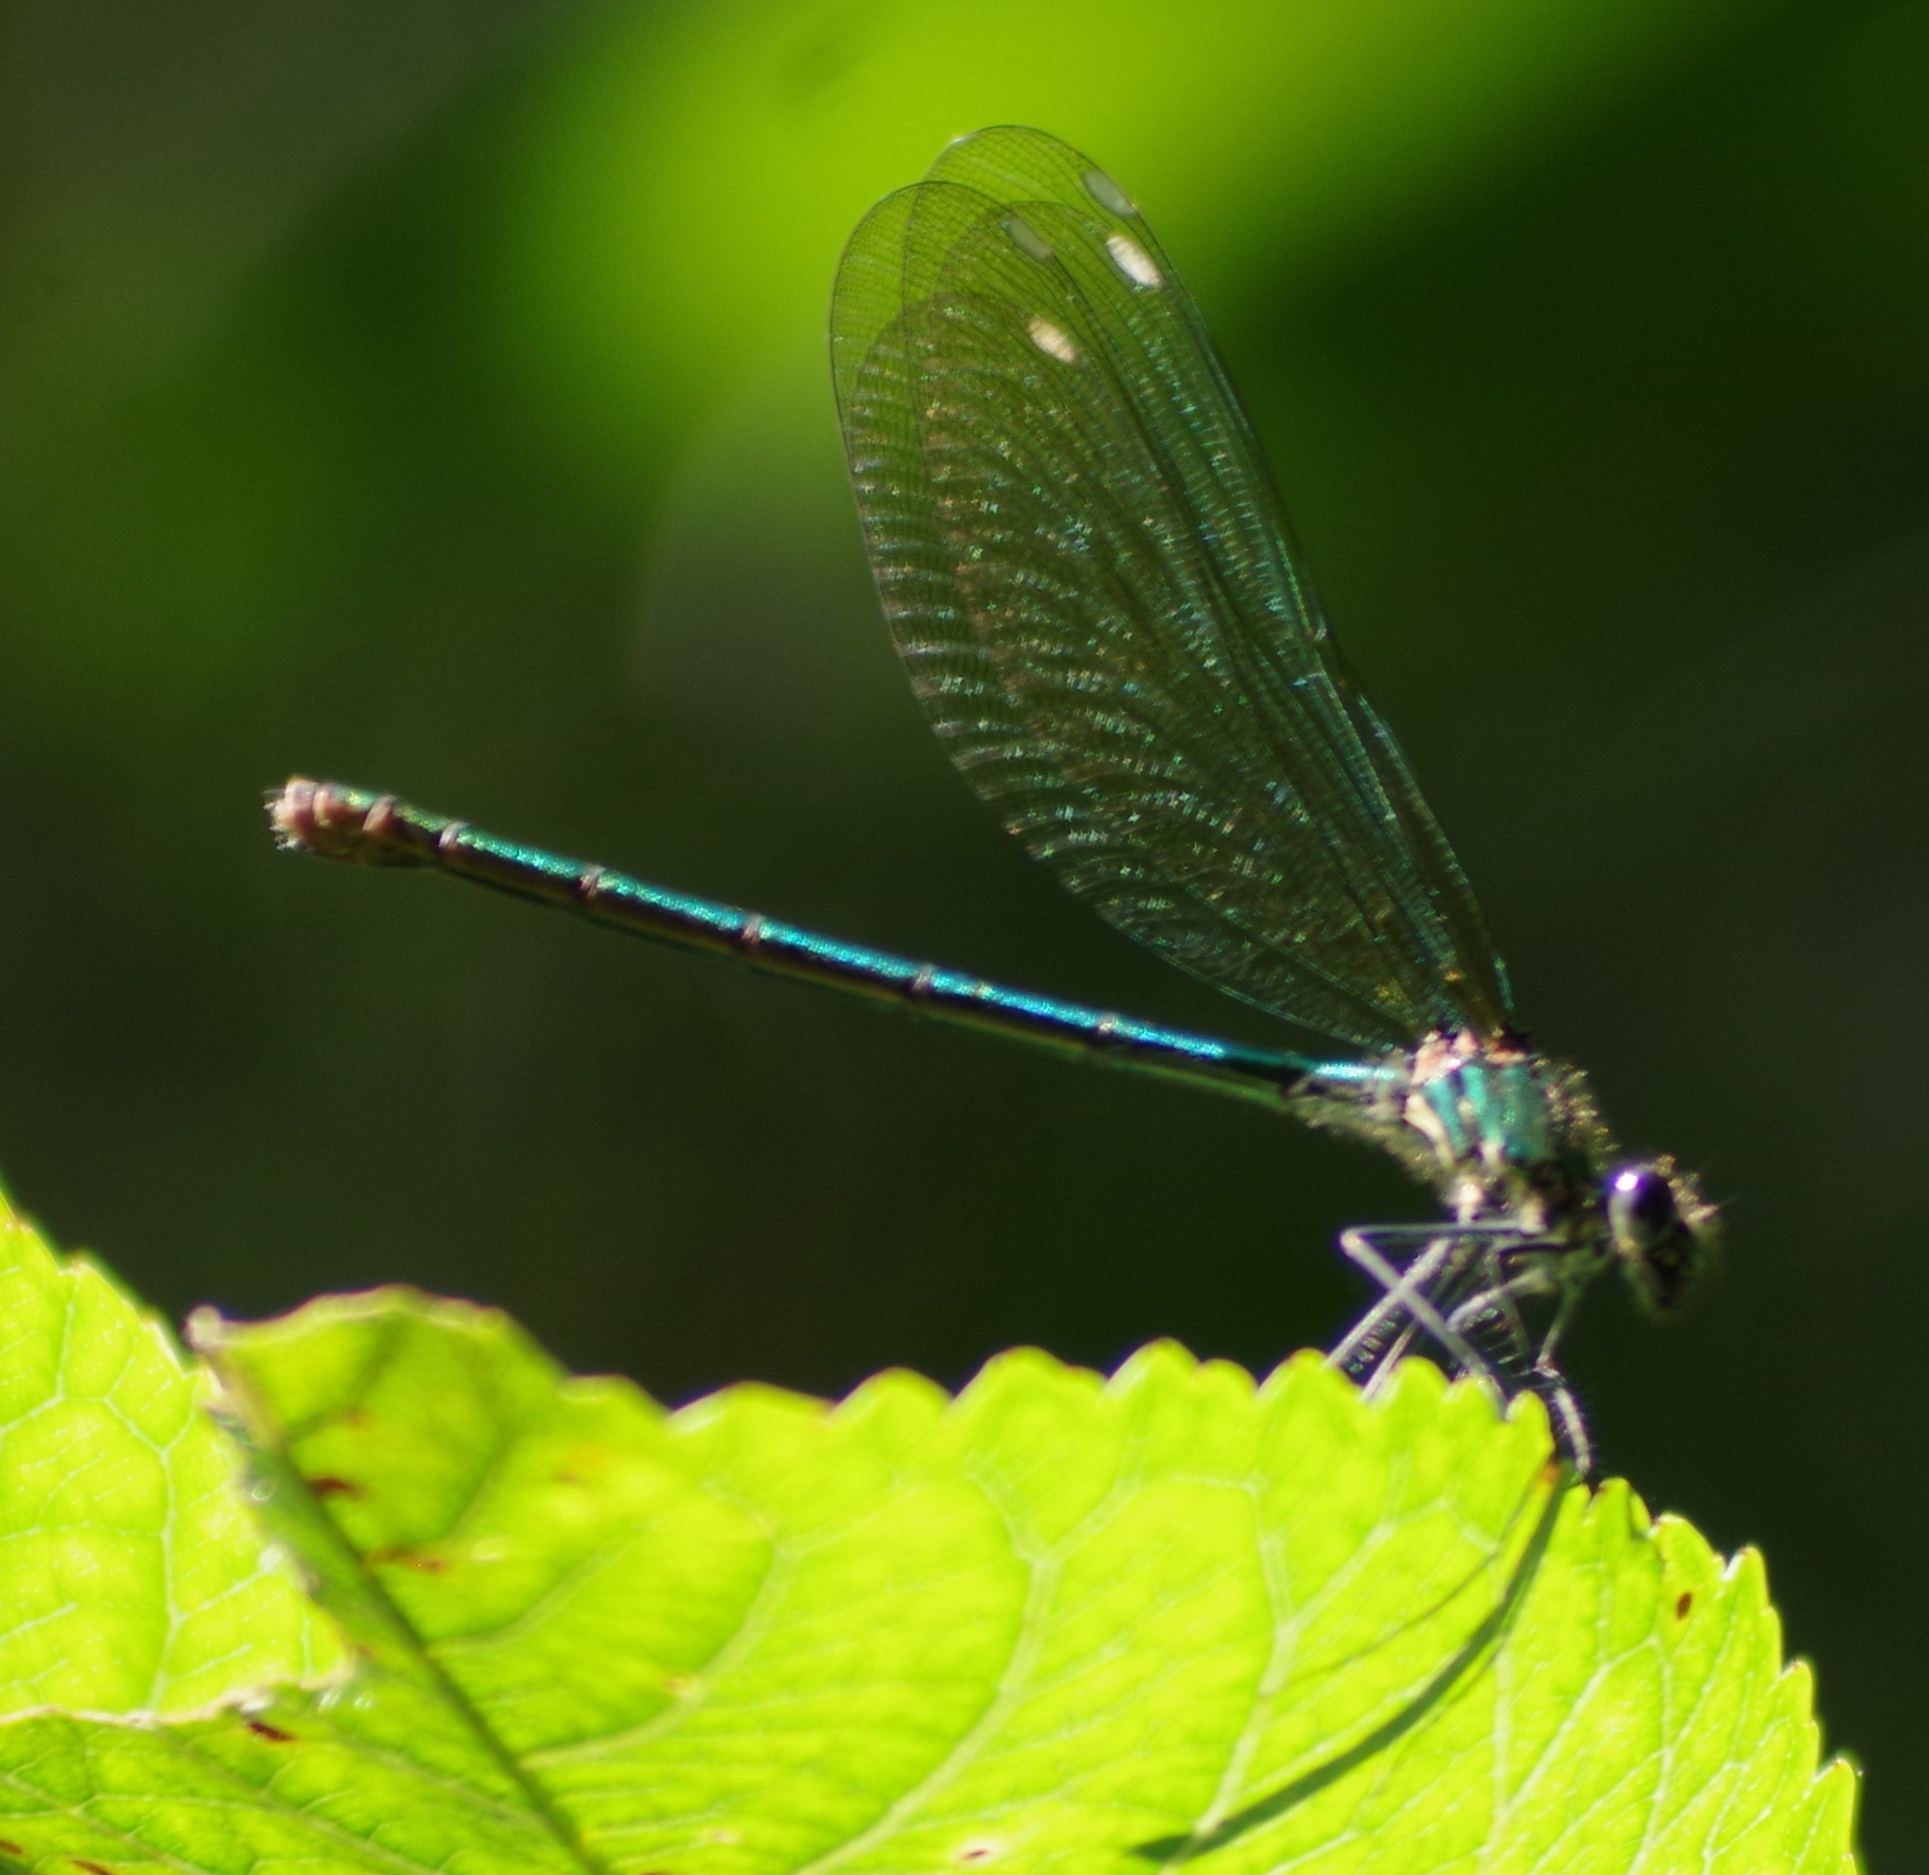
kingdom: Animalia
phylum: Arthropoda
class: Insecta
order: Odonata
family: Calopterygidae
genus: Calopteryx
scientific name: Calopteryx splendens
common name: Banded demoiselle
